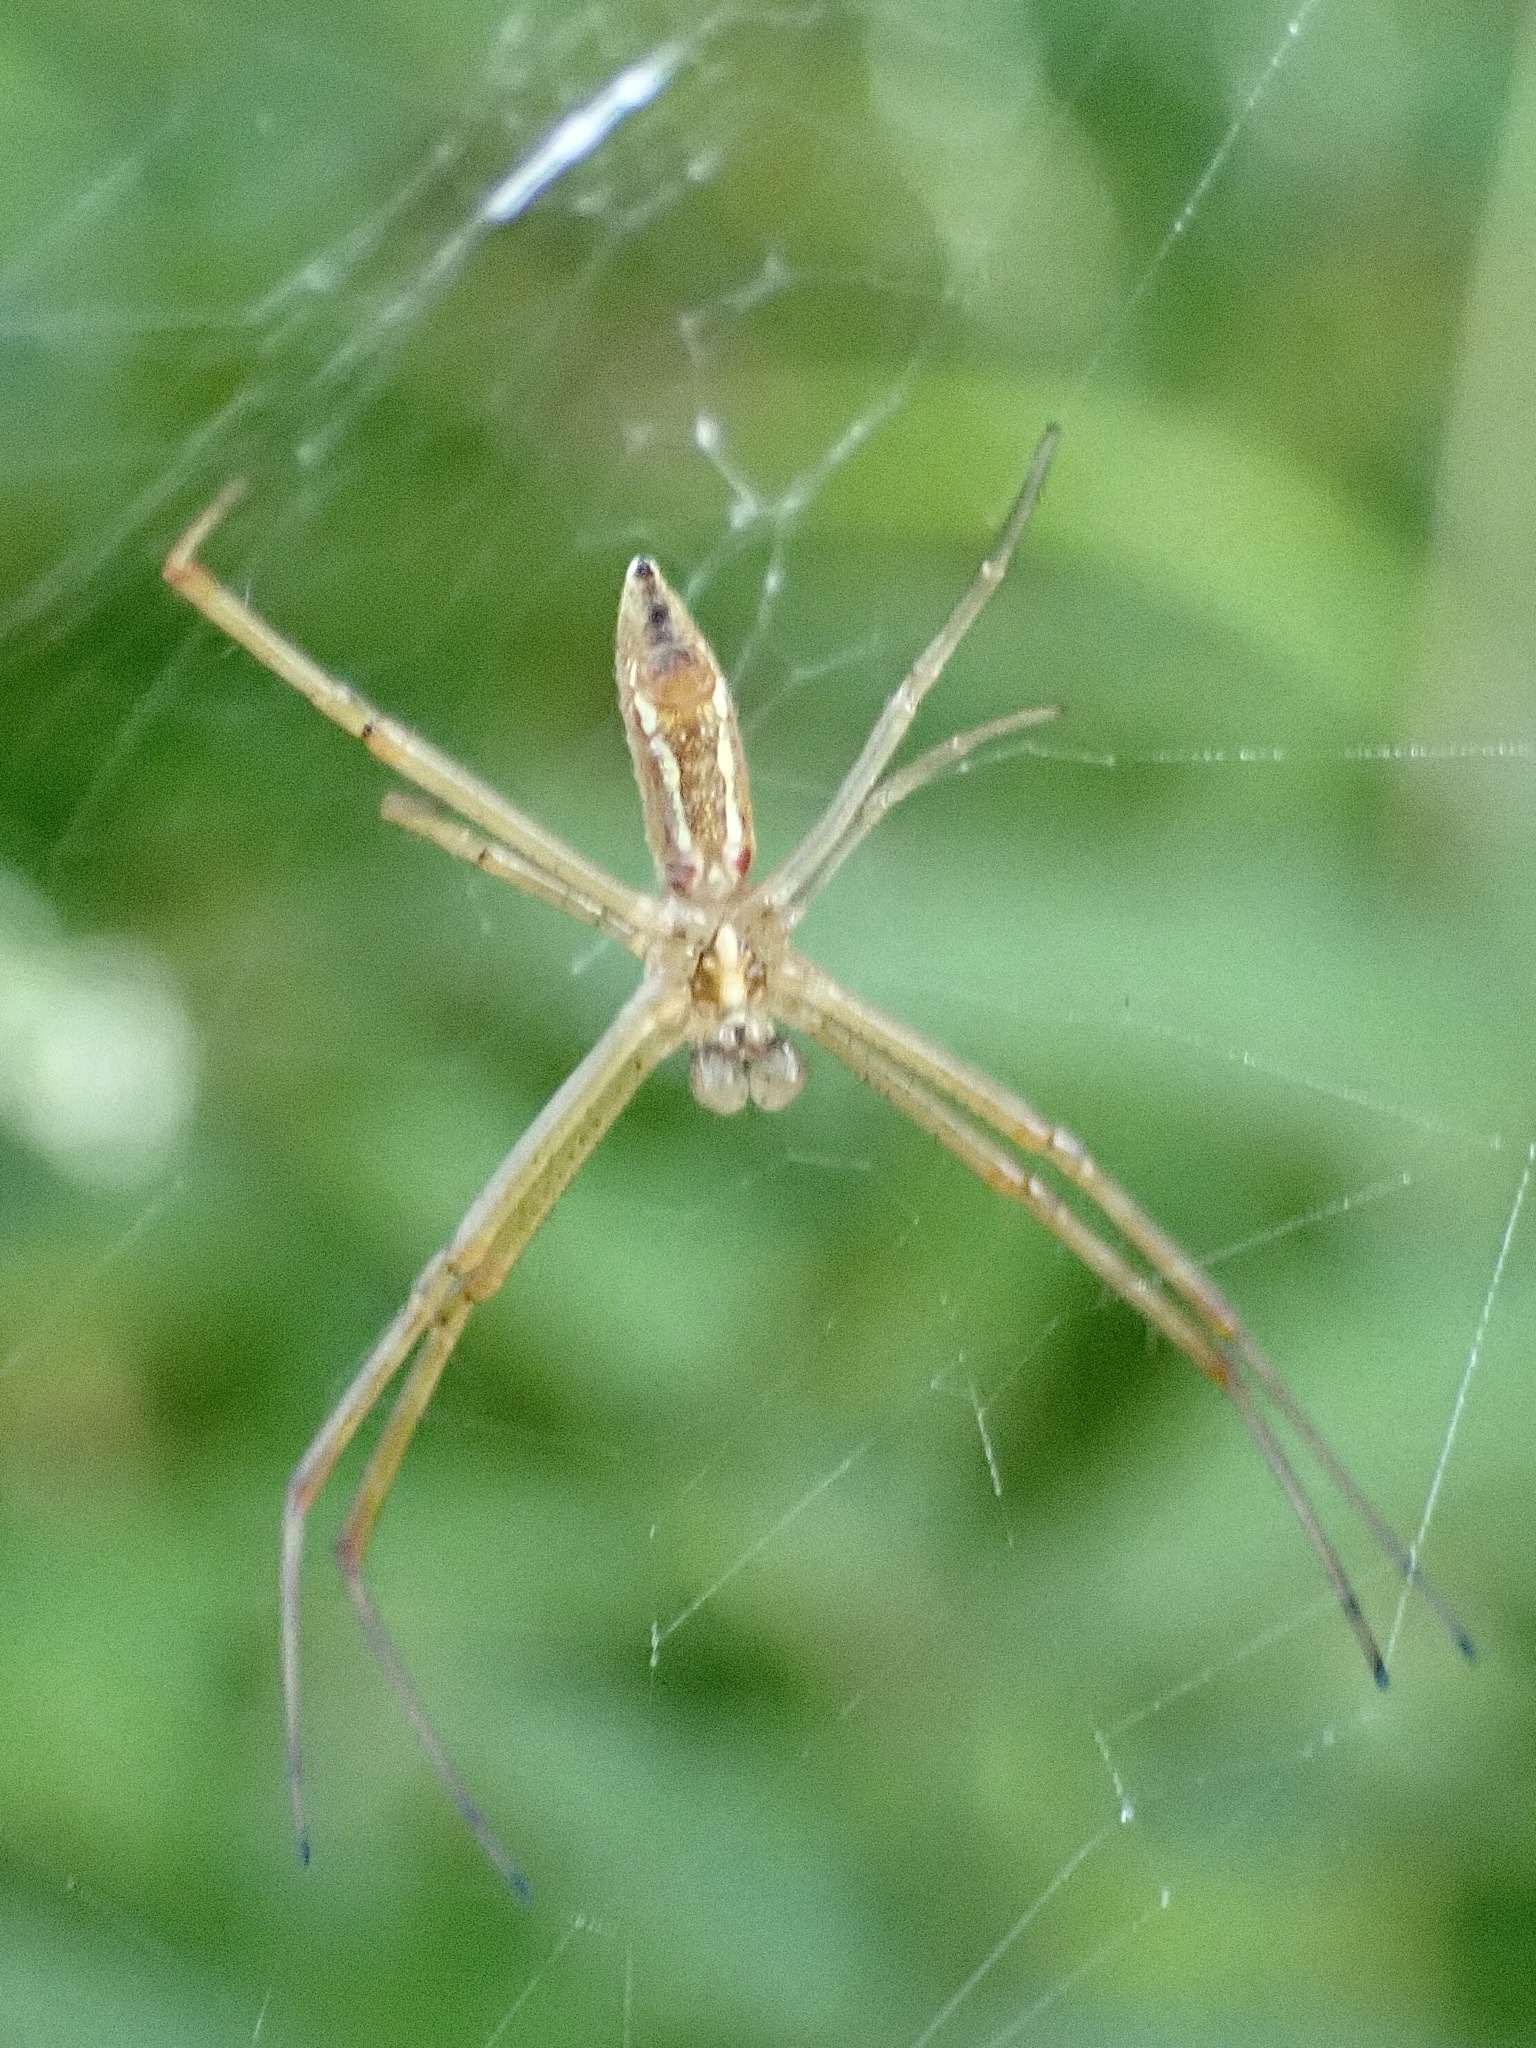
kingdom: Animalia
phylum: Arthropoda
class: Arachnida
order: Araneae
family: Araneidae
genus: Argiope
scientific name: Argiope trifasciata
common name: Banded garden spider
